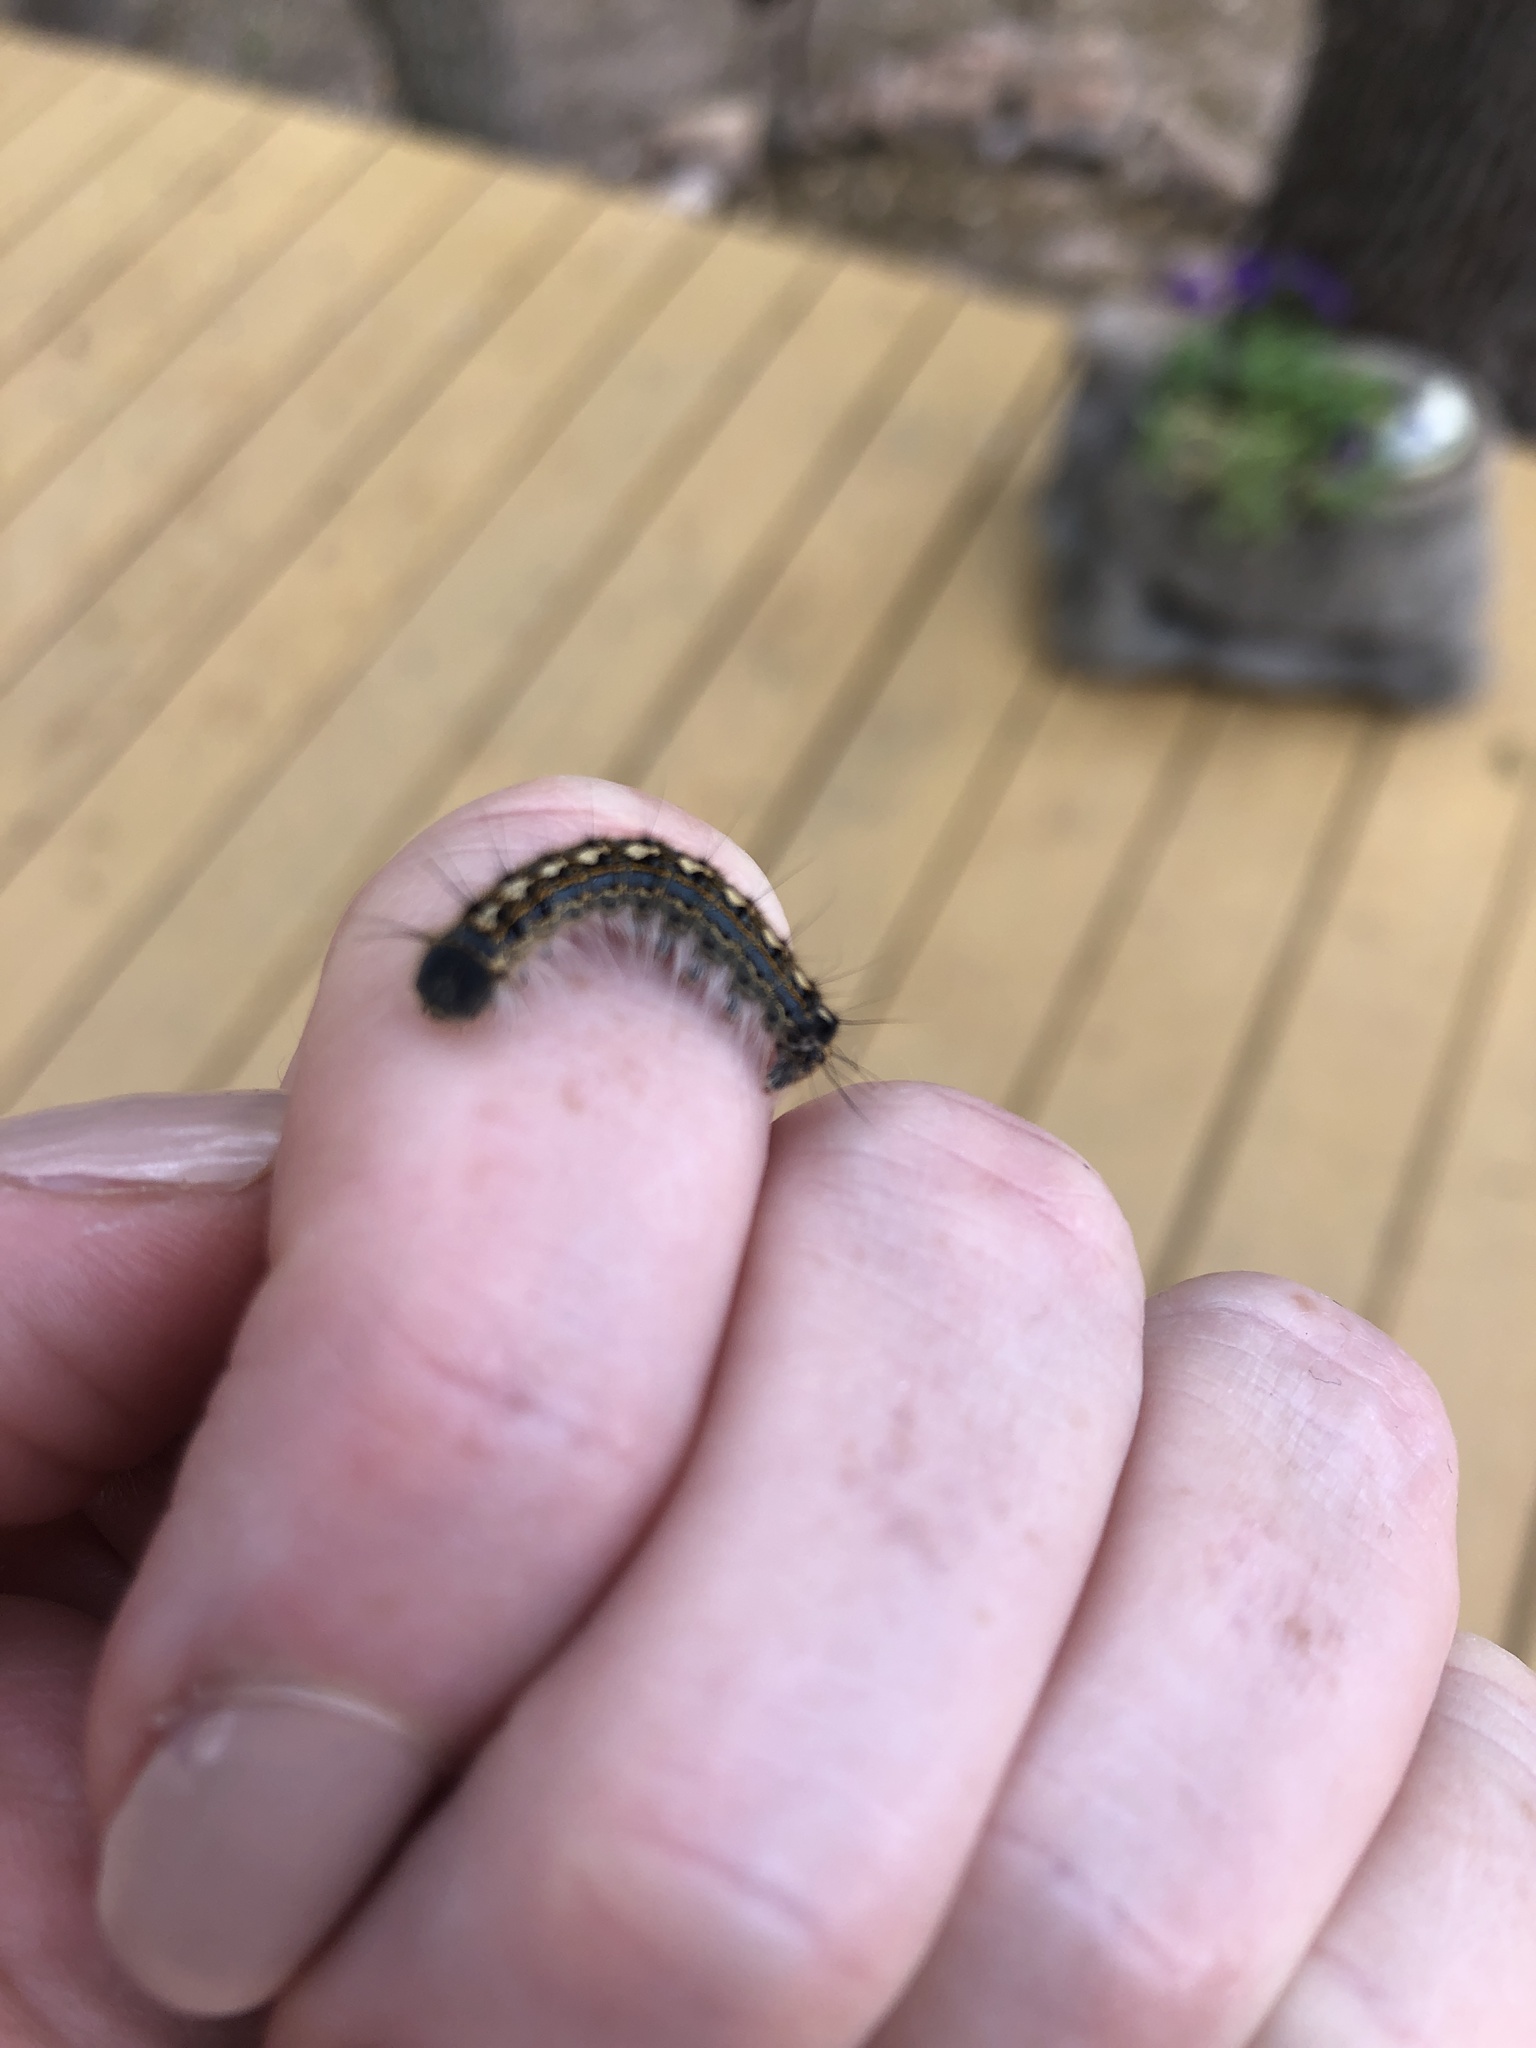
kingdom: Animalia
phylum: Arthropoda
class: Insecta
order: Lepidoptera
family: Lasiocampidae
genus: Malacosoma
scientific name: Malacosoma disstria
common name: Forest tent caterpillar
